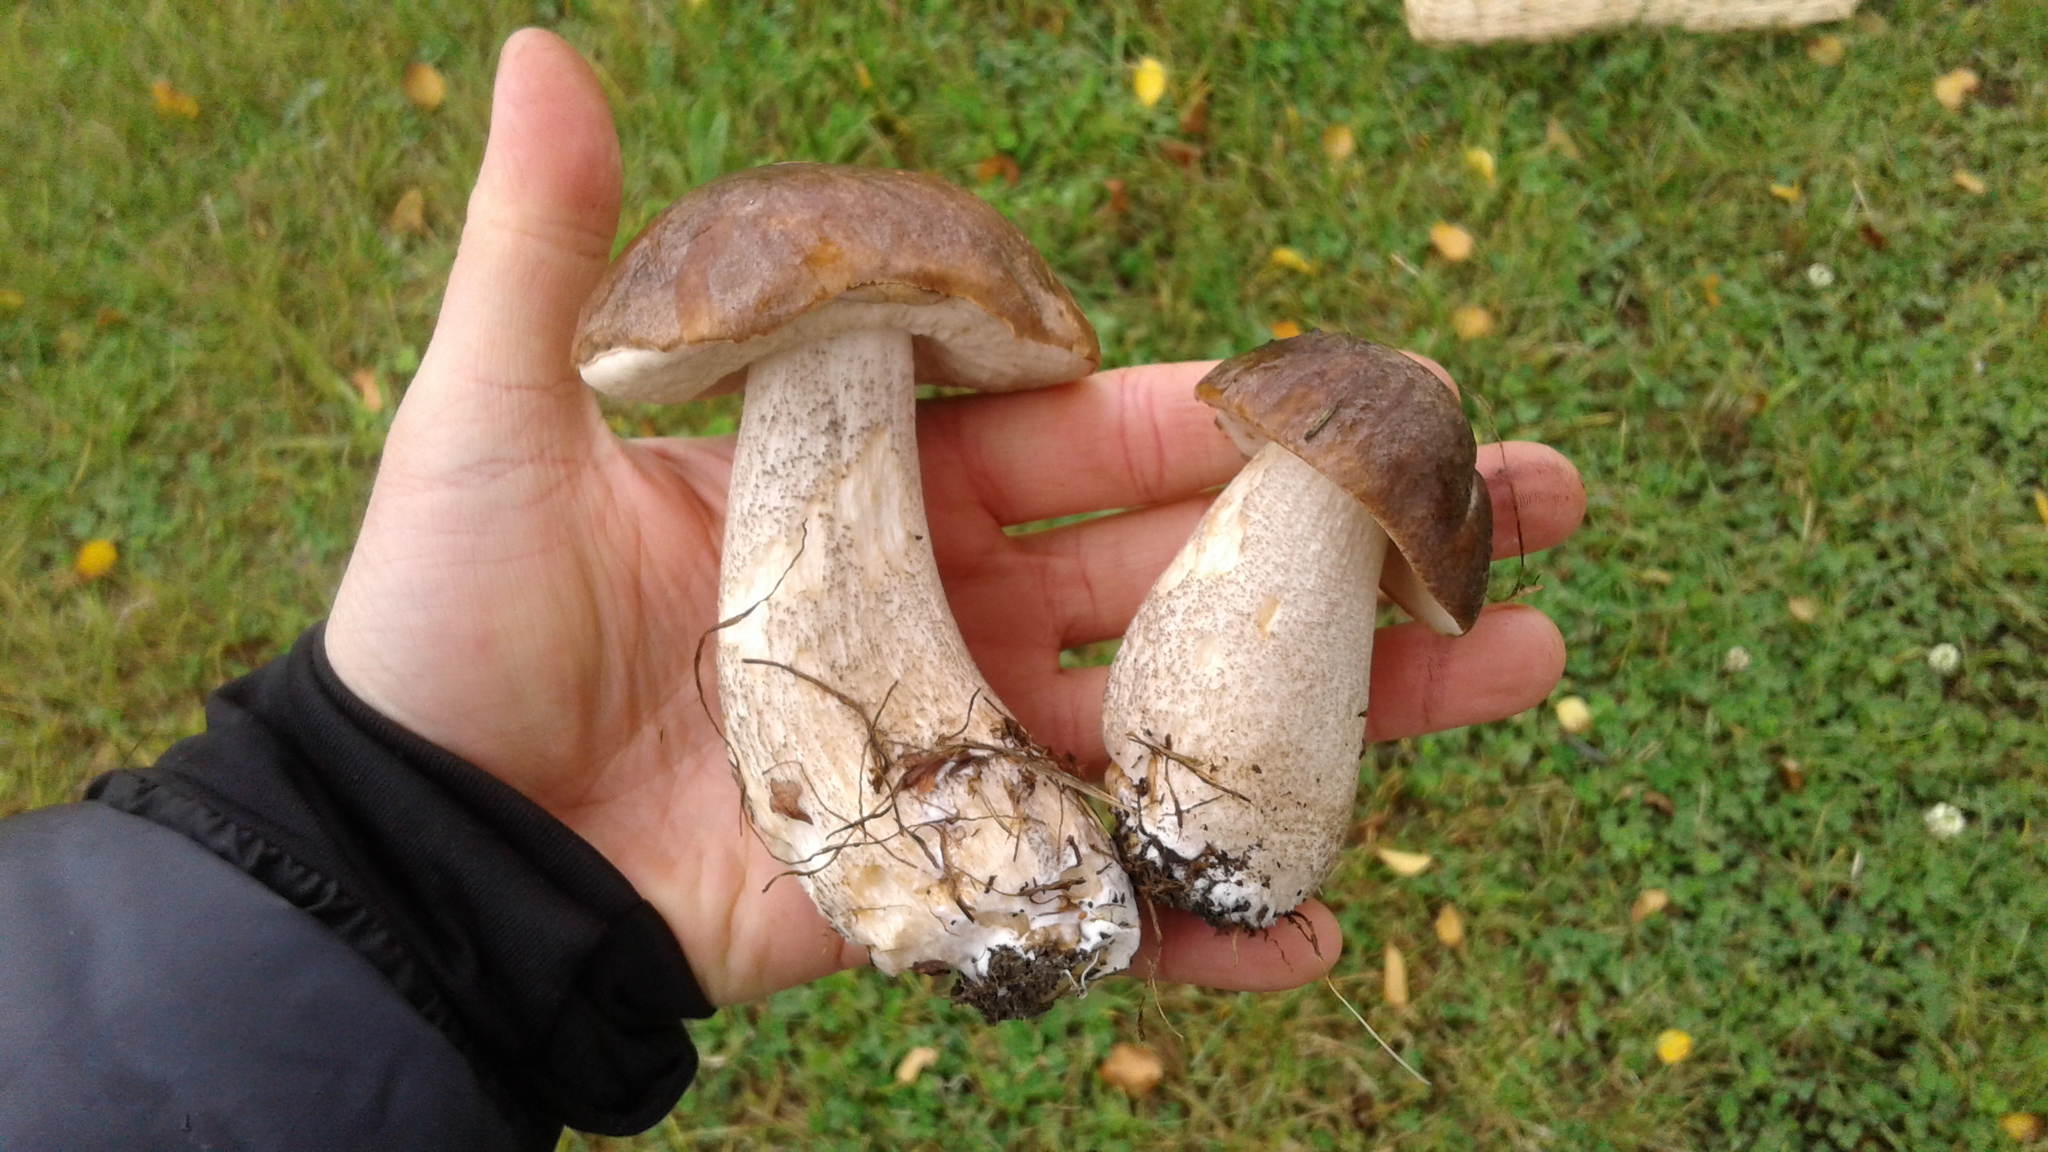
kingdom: Fungi
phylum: Basidiomycota
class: Agaricomycetes
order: Boletales
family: Boletaceae
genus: Leccinum
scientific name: Leccinum scabrum
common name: Blushing bolete
